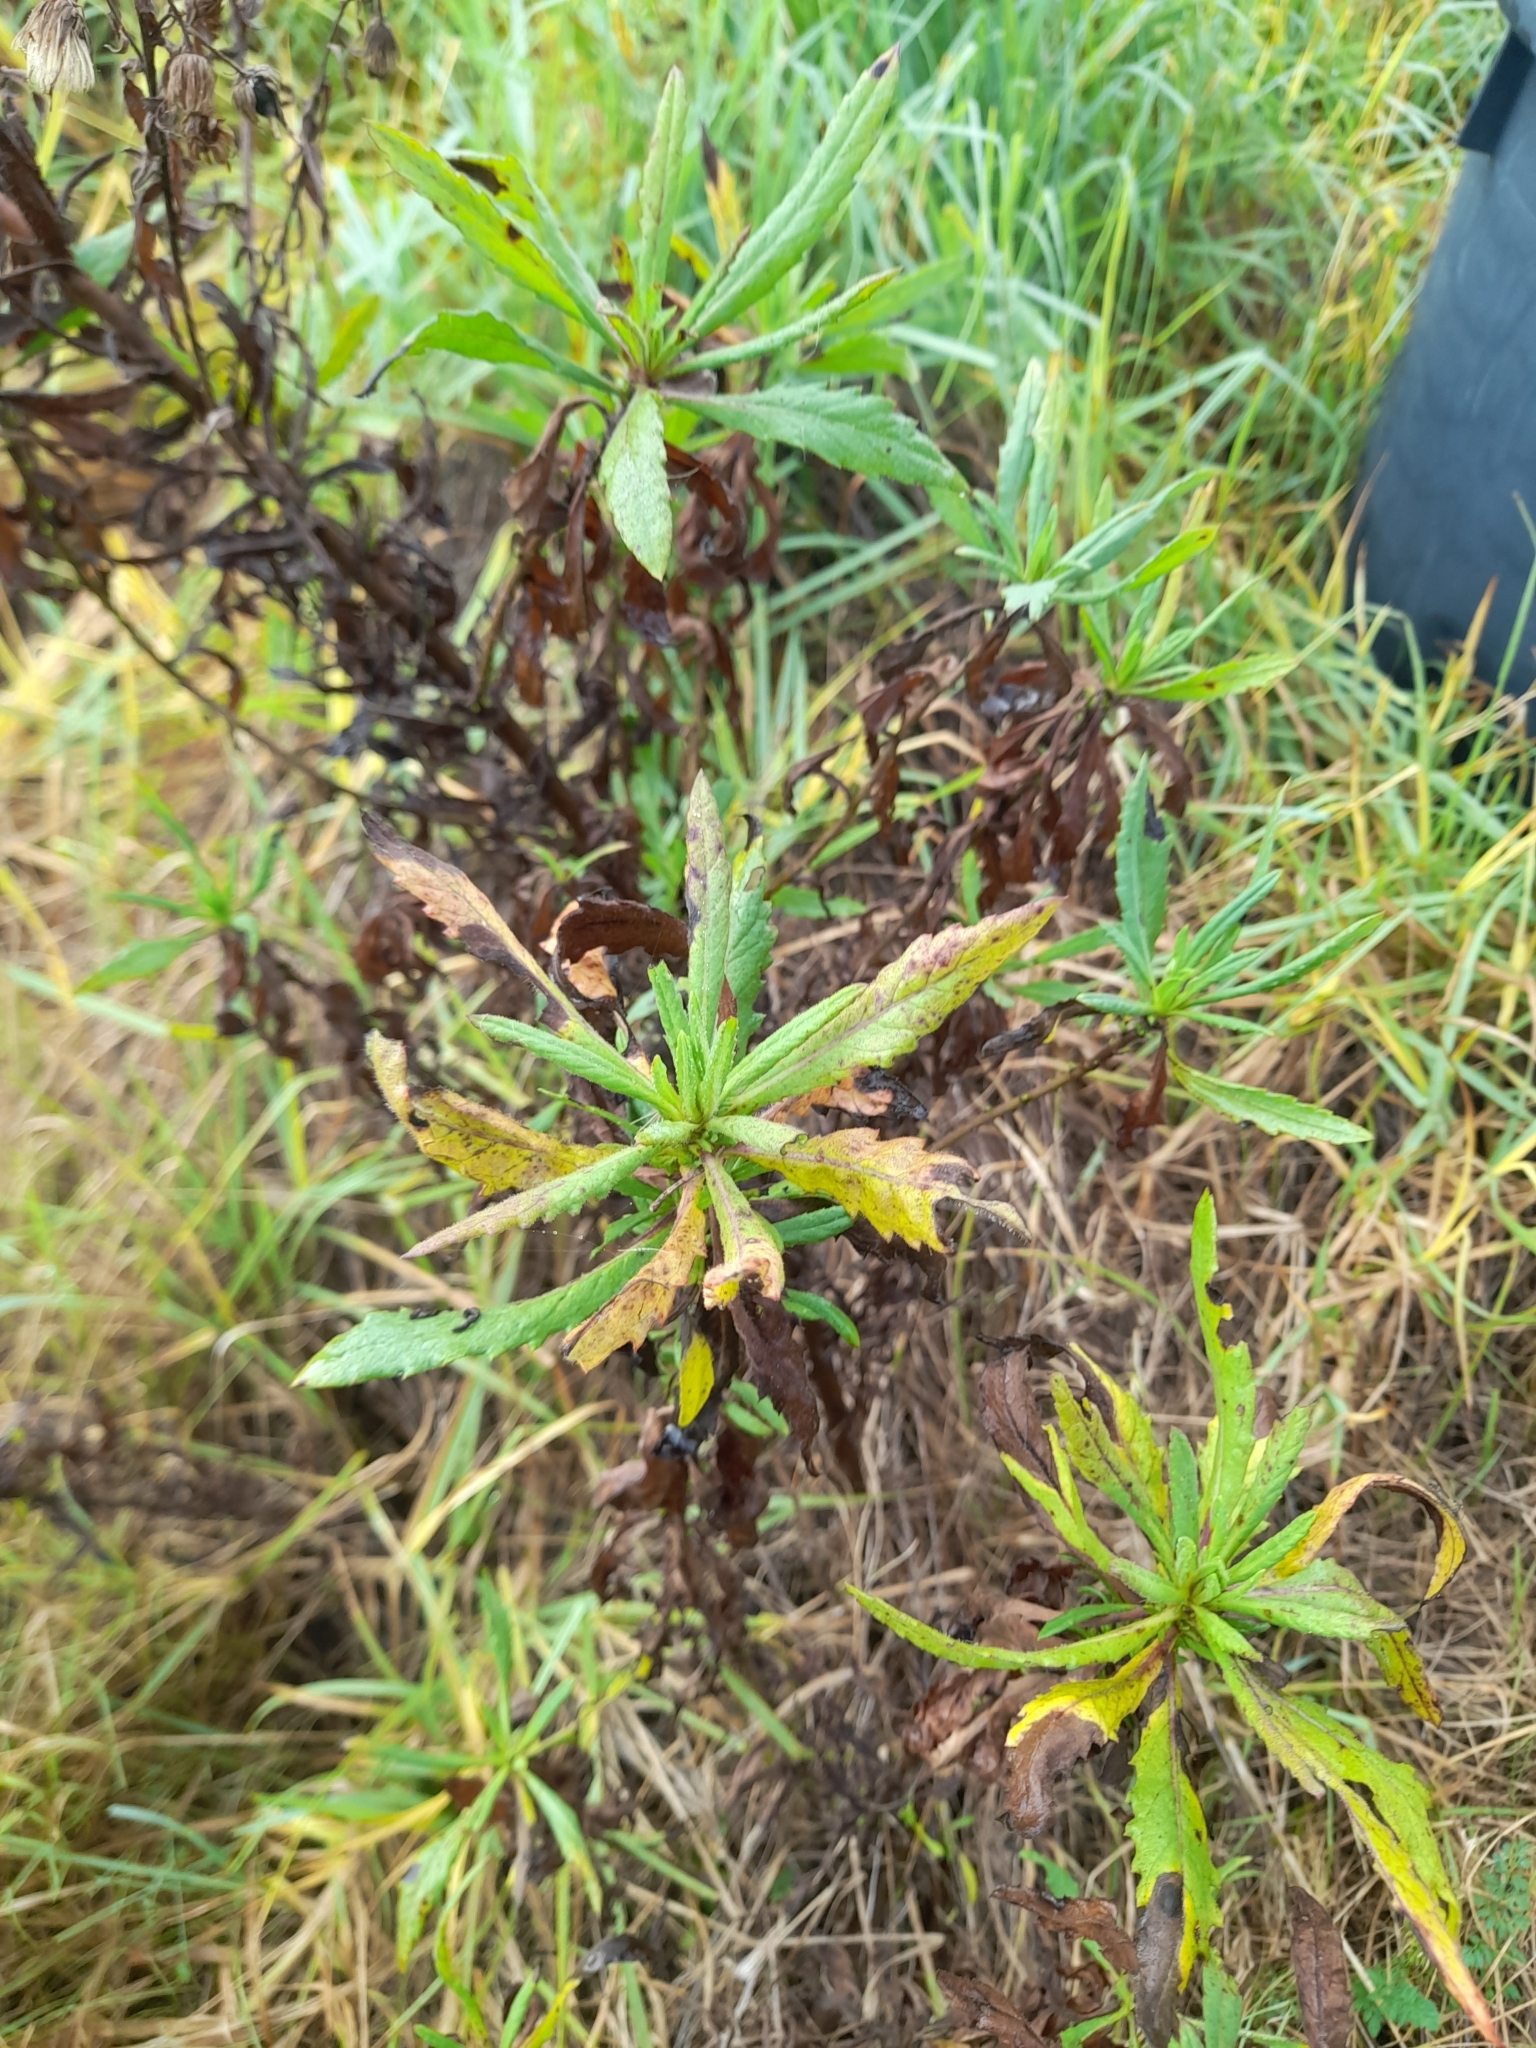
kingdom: Plantae
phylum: Tracheophyta
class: Magnoliopsida
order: Asterales
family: Asteraceae
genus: Dittrichia
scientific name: Dittrichia viscosa
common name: Woody fleabane
